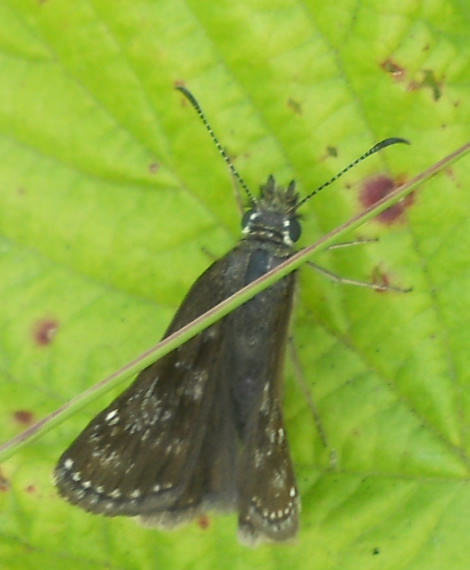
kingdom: Animalia
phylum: Arthropoda
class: Insecta
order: Lepidoptera
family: Hesperiidae
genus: Erynnis
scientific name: Erynnis tages
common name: Dingy skipper
